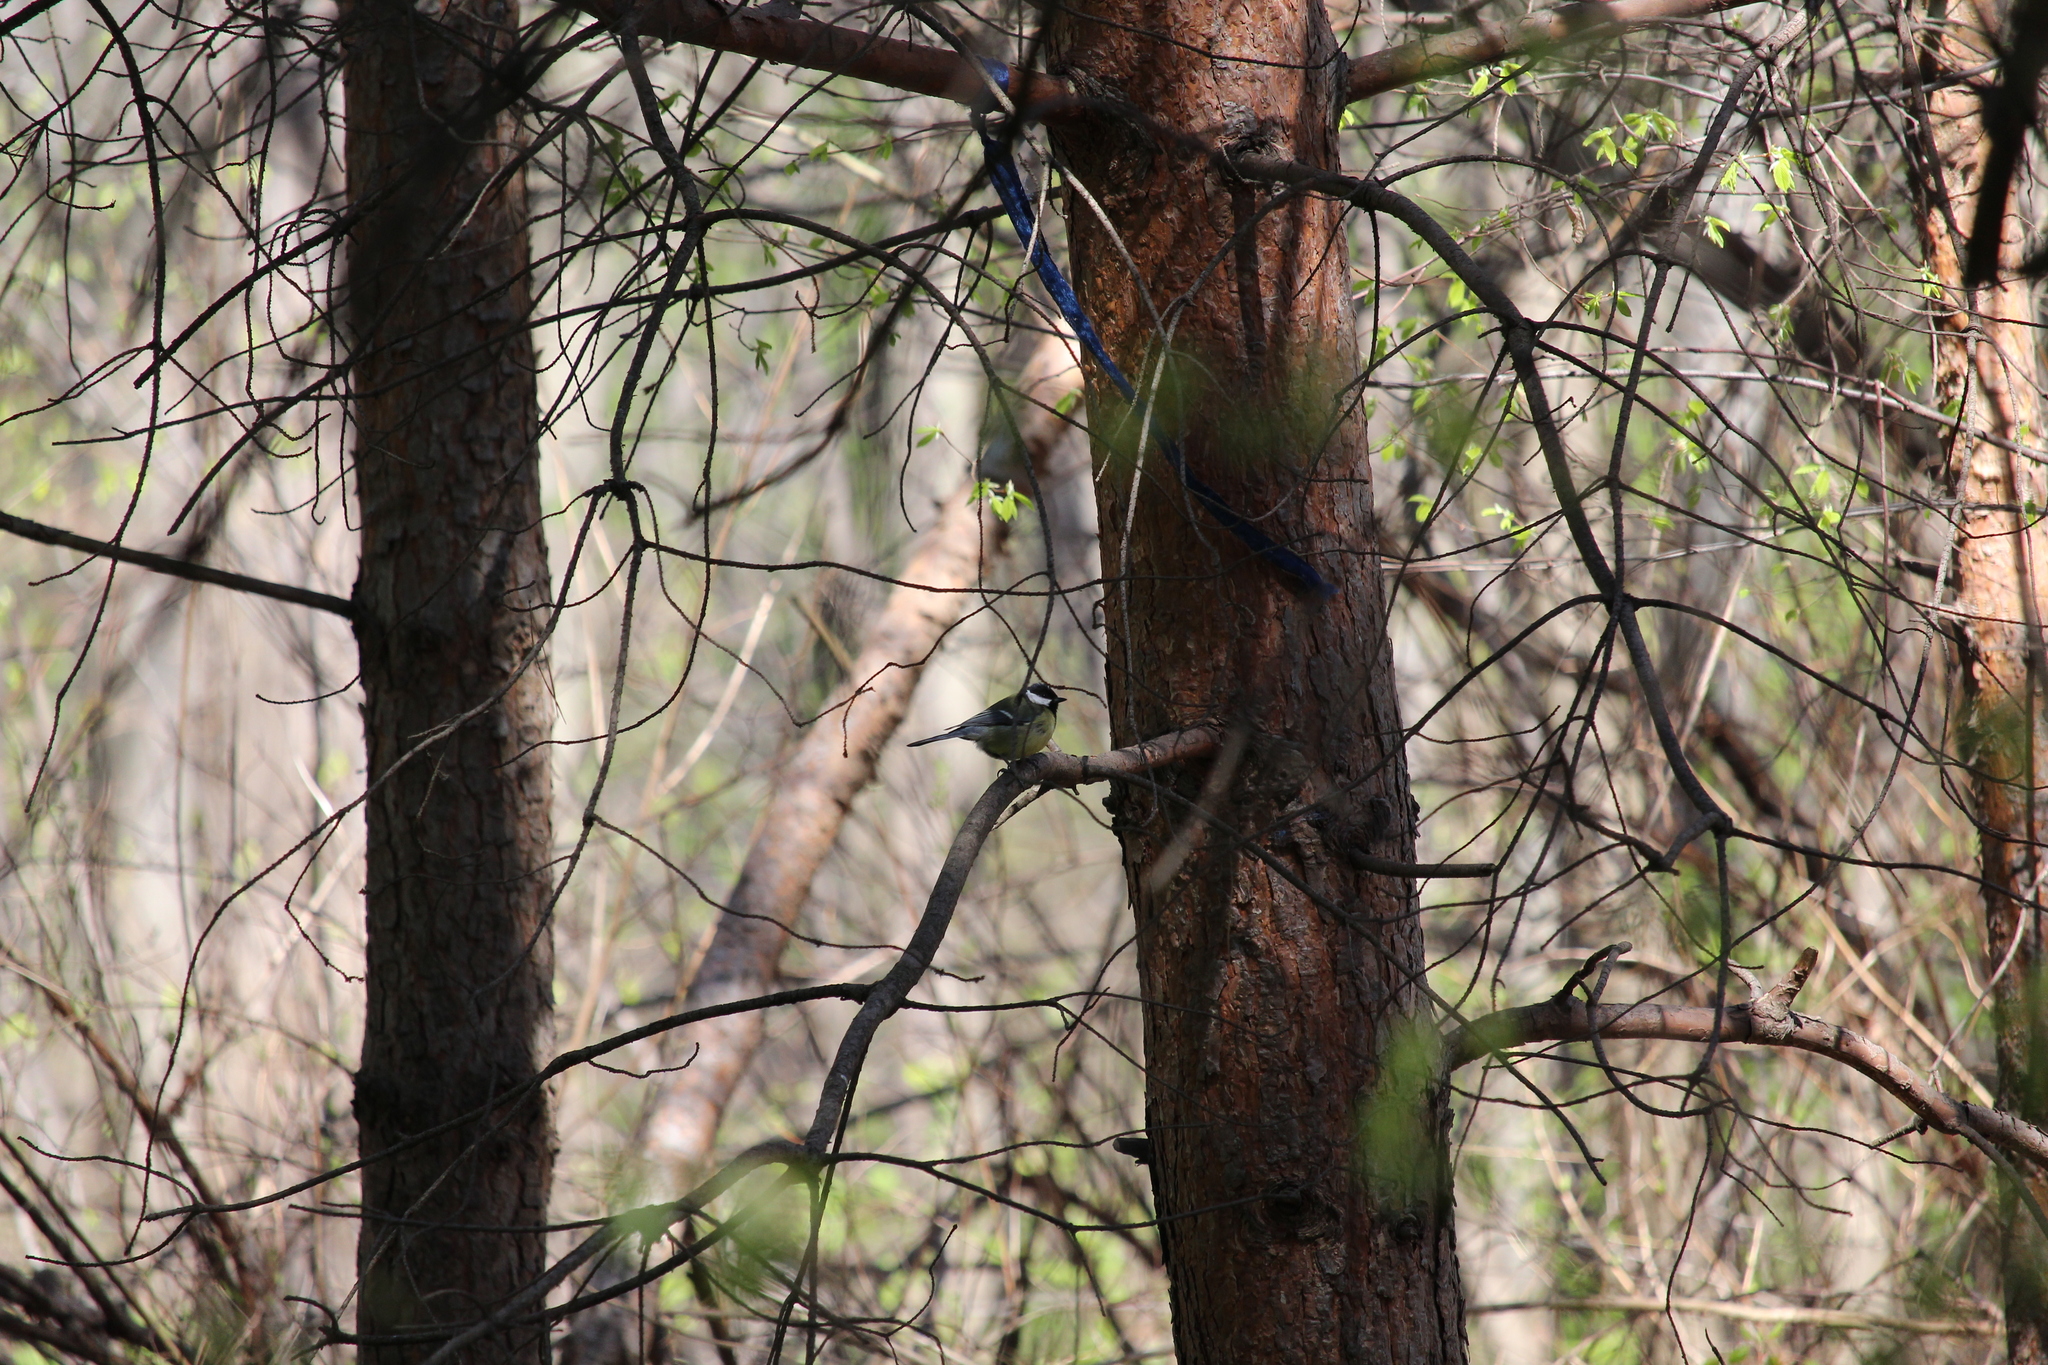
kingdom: Animalia
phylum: Chordata
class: Aves
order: Passeriformes
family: Paridae
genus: Parus
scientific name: Parus major
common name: Great tit
